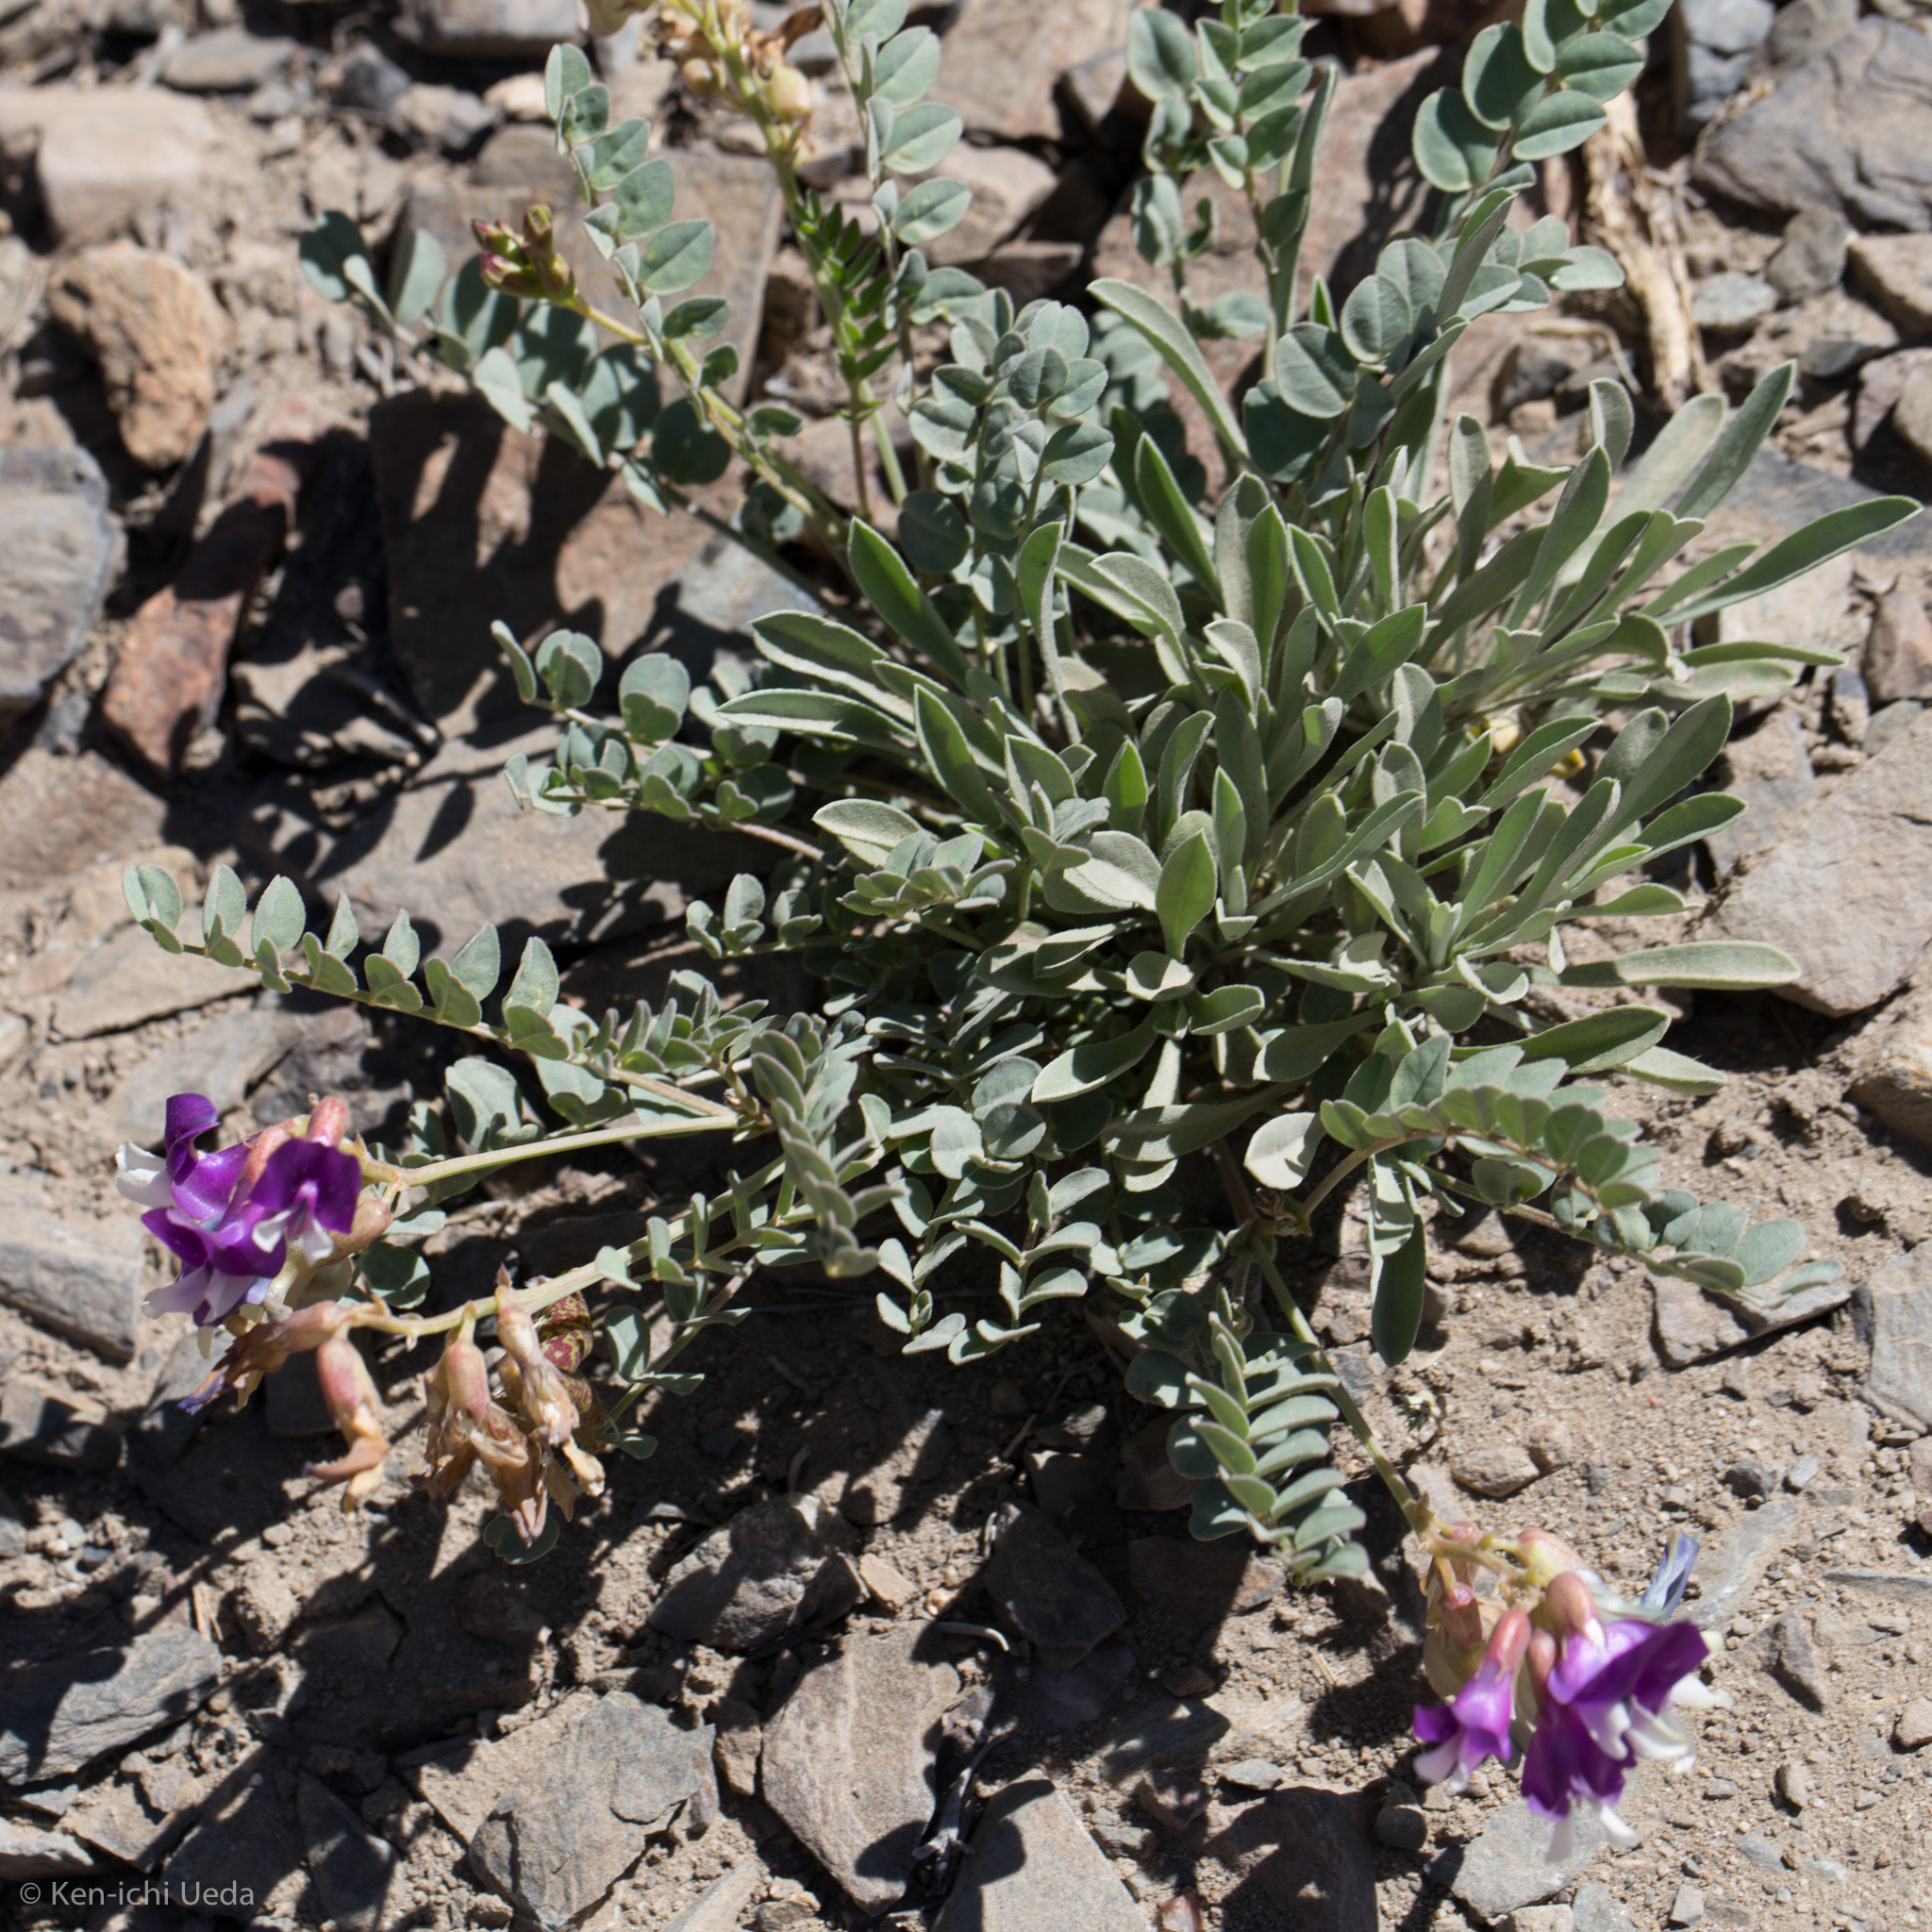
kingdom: Plantae
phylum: Tracheophyta
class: Magnoliopsida
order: Fabales
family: Fabaceae
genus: Astragalus
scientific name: Astragalus oophorus
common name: Egg milkvetch
